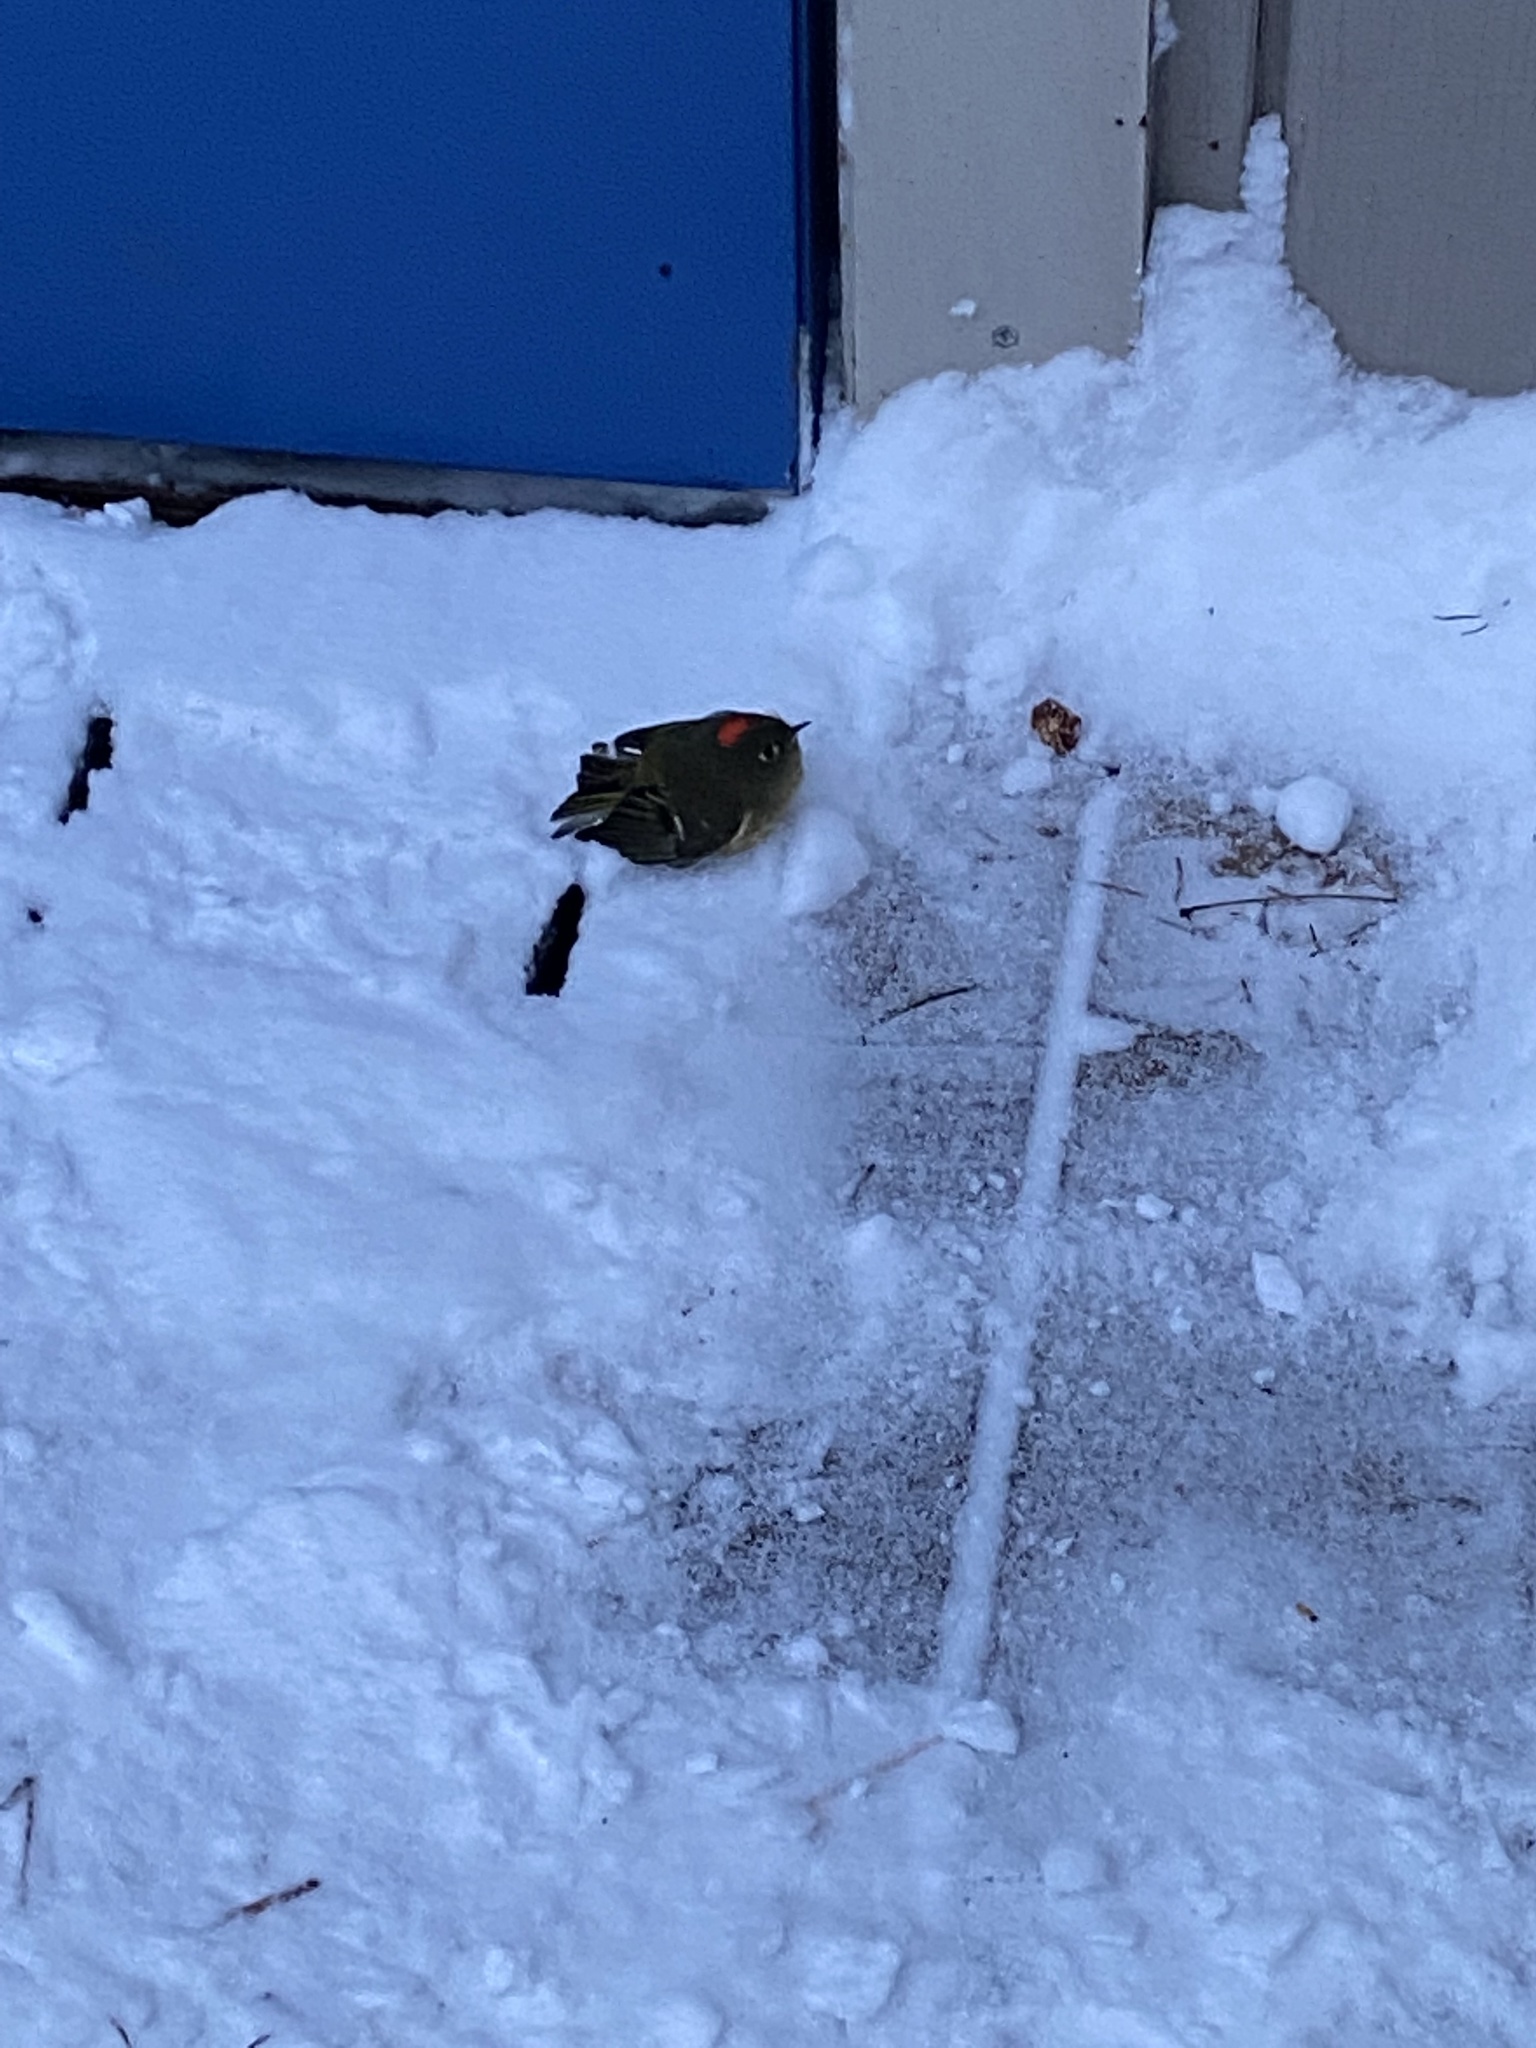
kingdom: Animalia
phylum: Chordata
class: Aves
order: Passeriformes
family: Regulidae
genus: Regulus
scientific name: Regulus calendula
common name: Ruby-crowned kinglet
